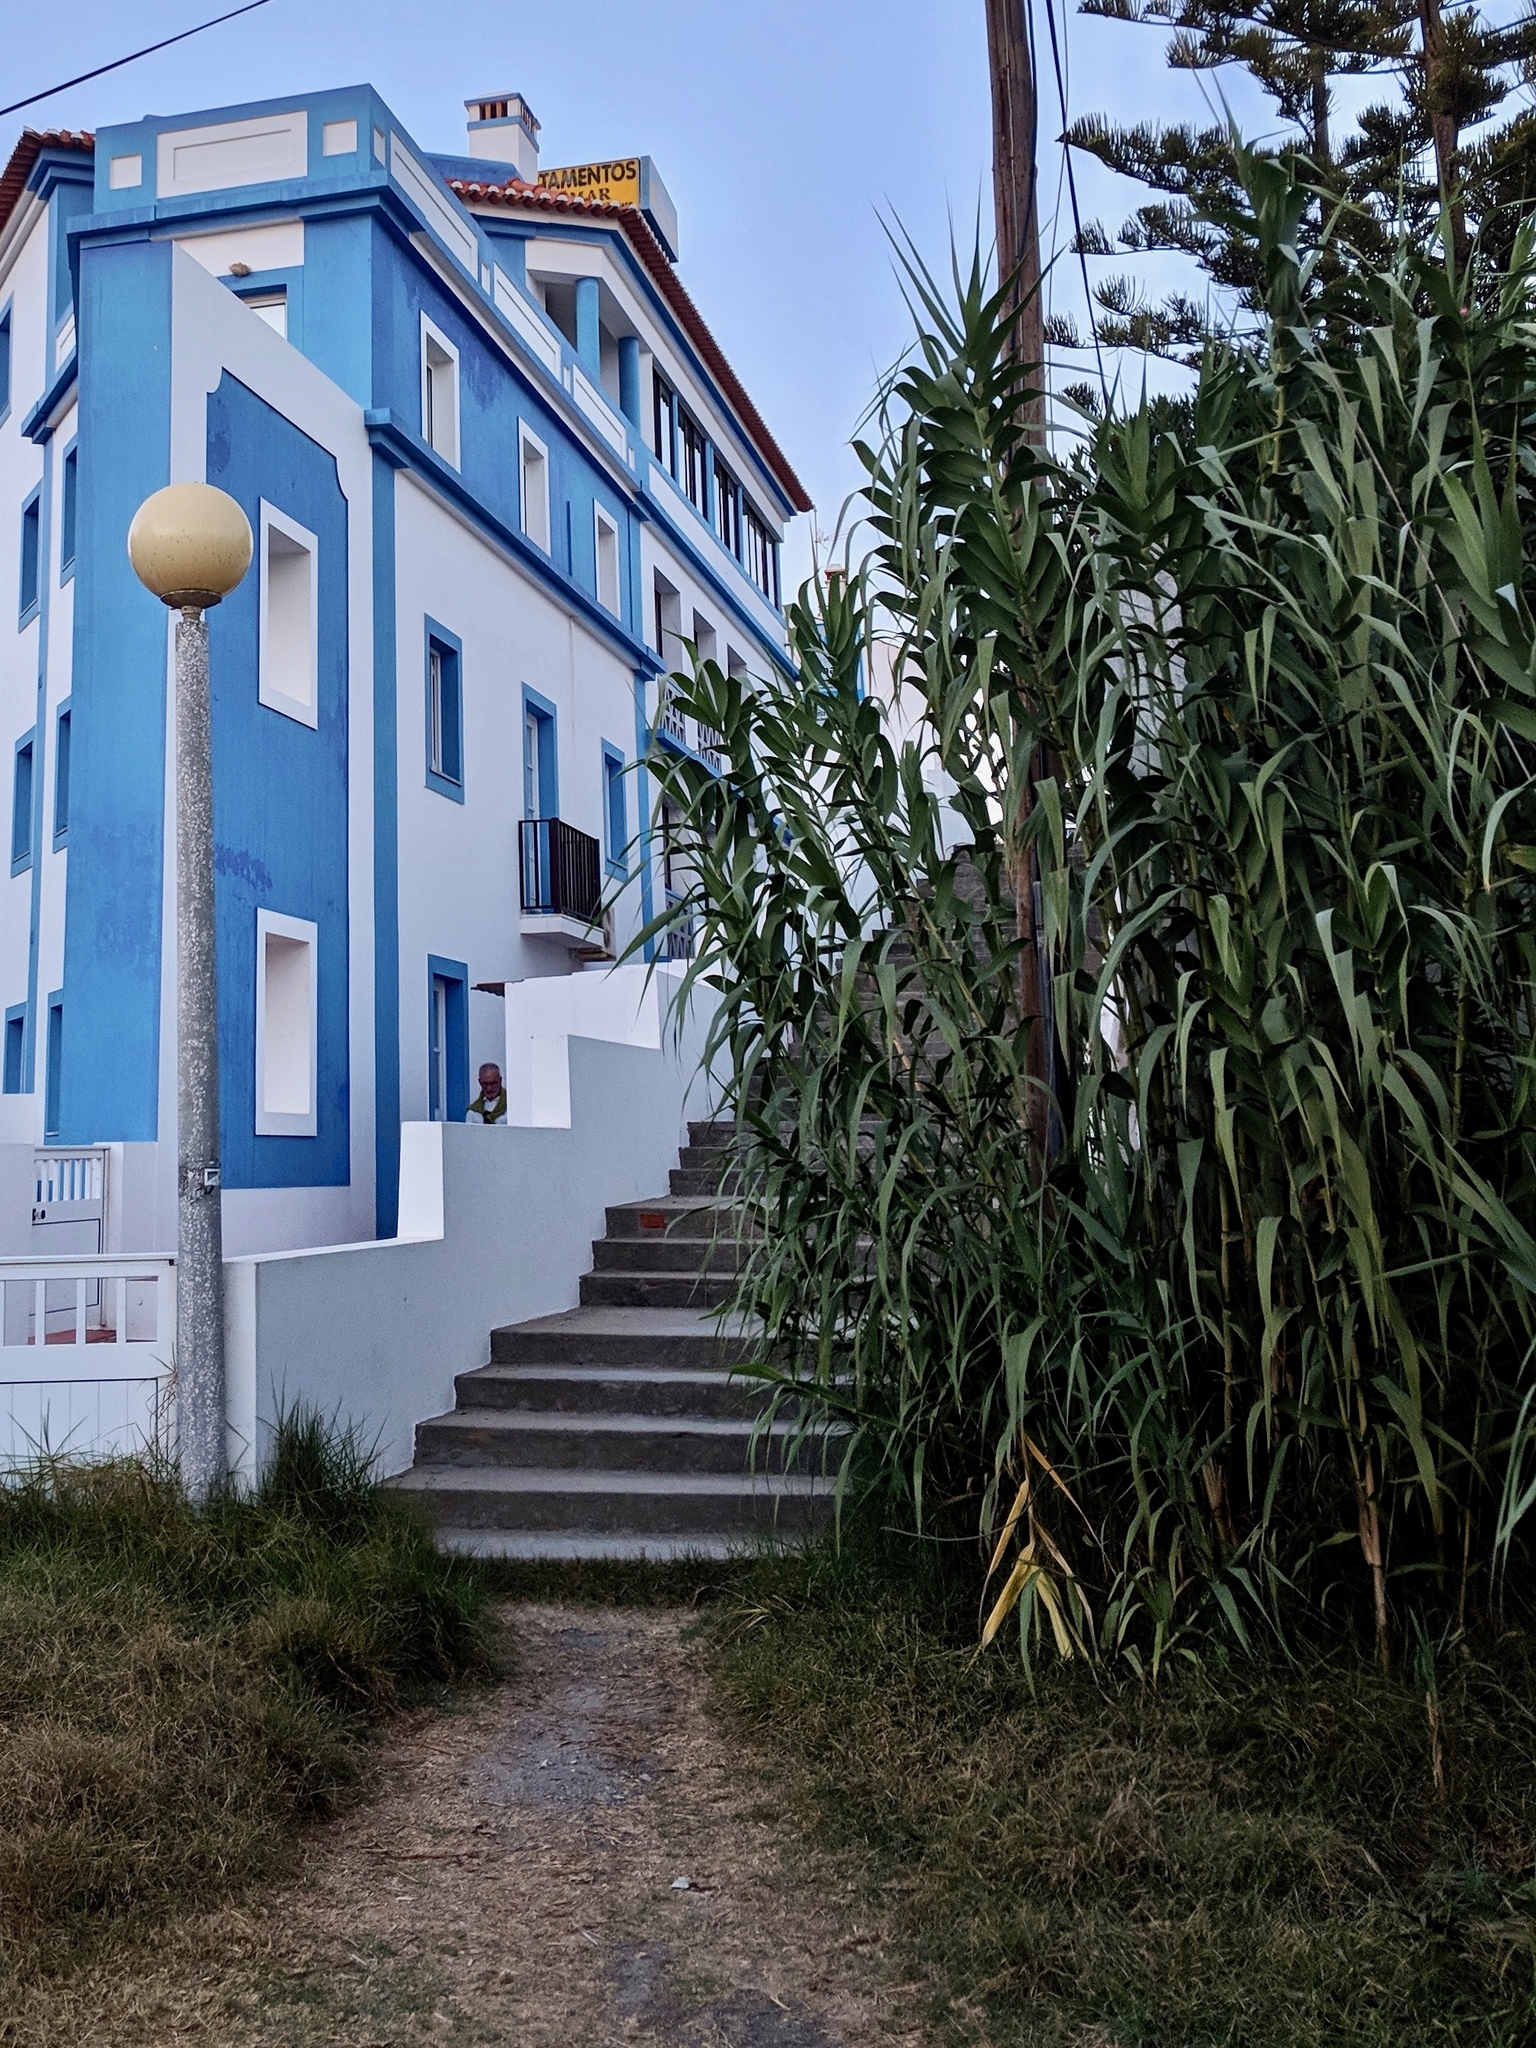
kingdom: Plantae
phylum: Tracheophyta
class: Liliopsida
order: Poales
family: Poaceae
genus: Arundo
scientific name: Arundo donax
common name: Giant reed
